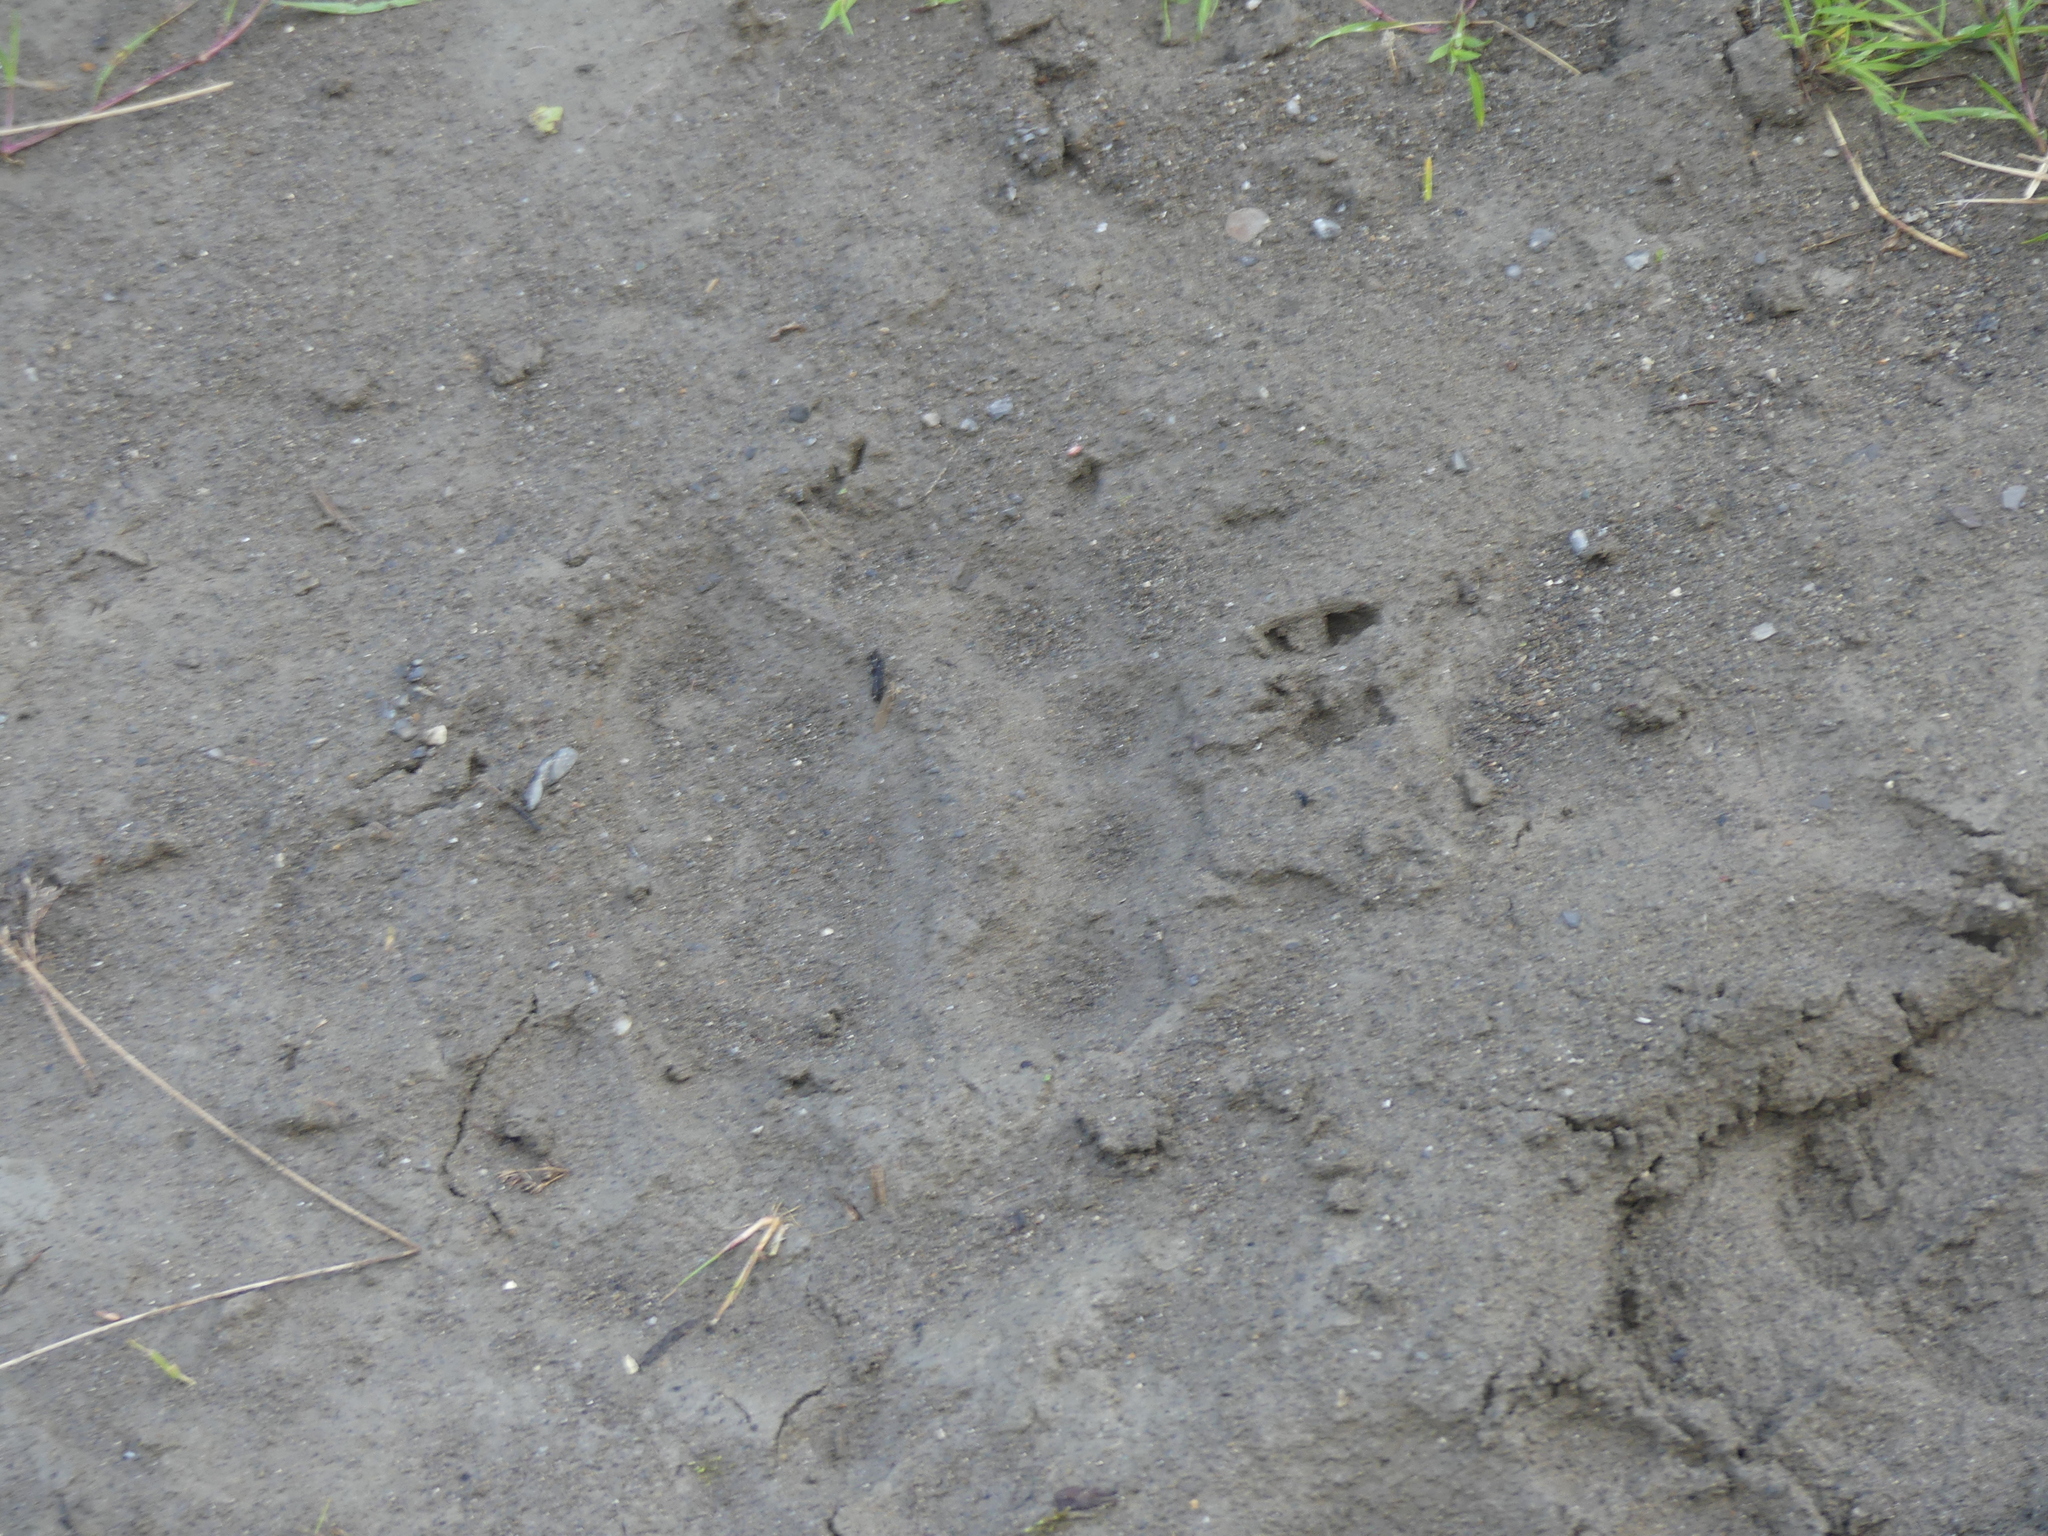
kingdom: Animalia
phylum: Chordata
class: Mammalia
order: Carnivora
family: Ursidae
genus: Ursus
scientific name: Ursus arctos
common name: Brown bear
